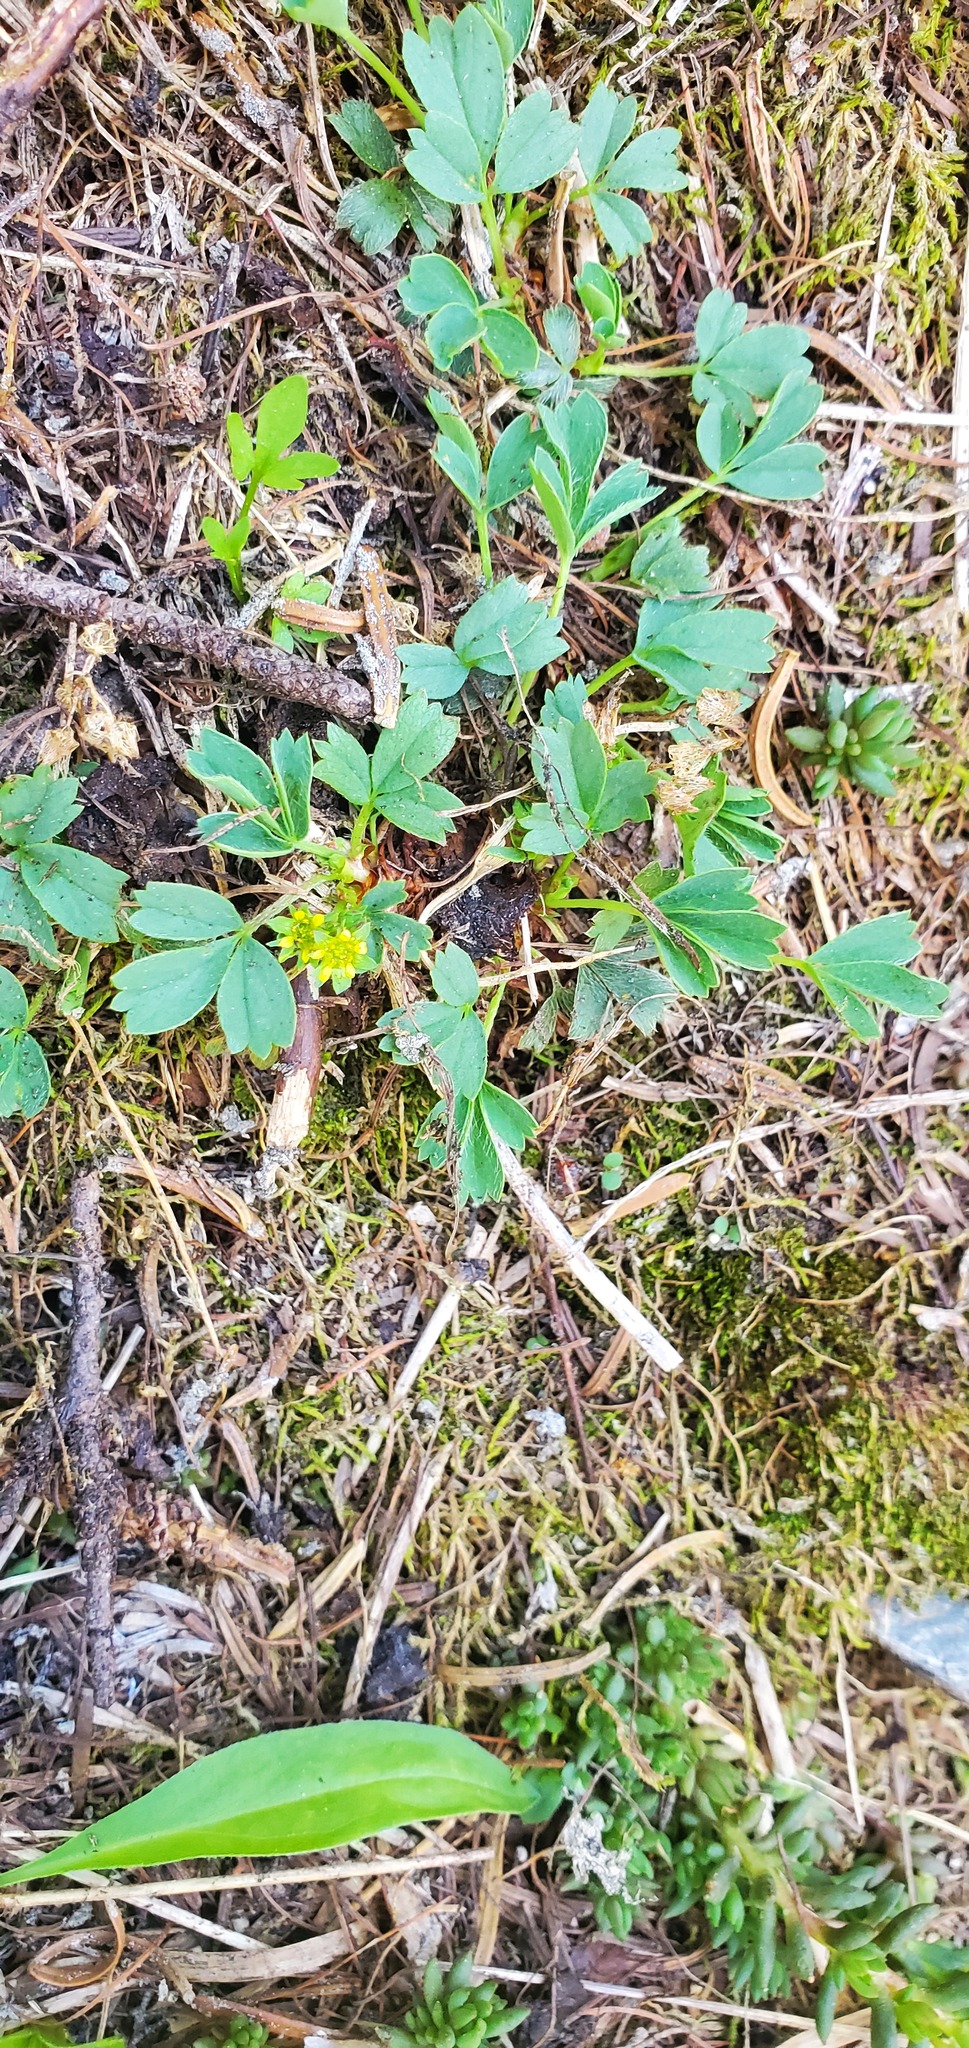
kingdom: Plantae
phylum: Tracheophyta
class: Magnoliopsida
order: Rosales
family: Rosaceae
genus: Sibbaldia
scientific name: Sibbaldia procumbens
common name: Creeping sibbaldia
